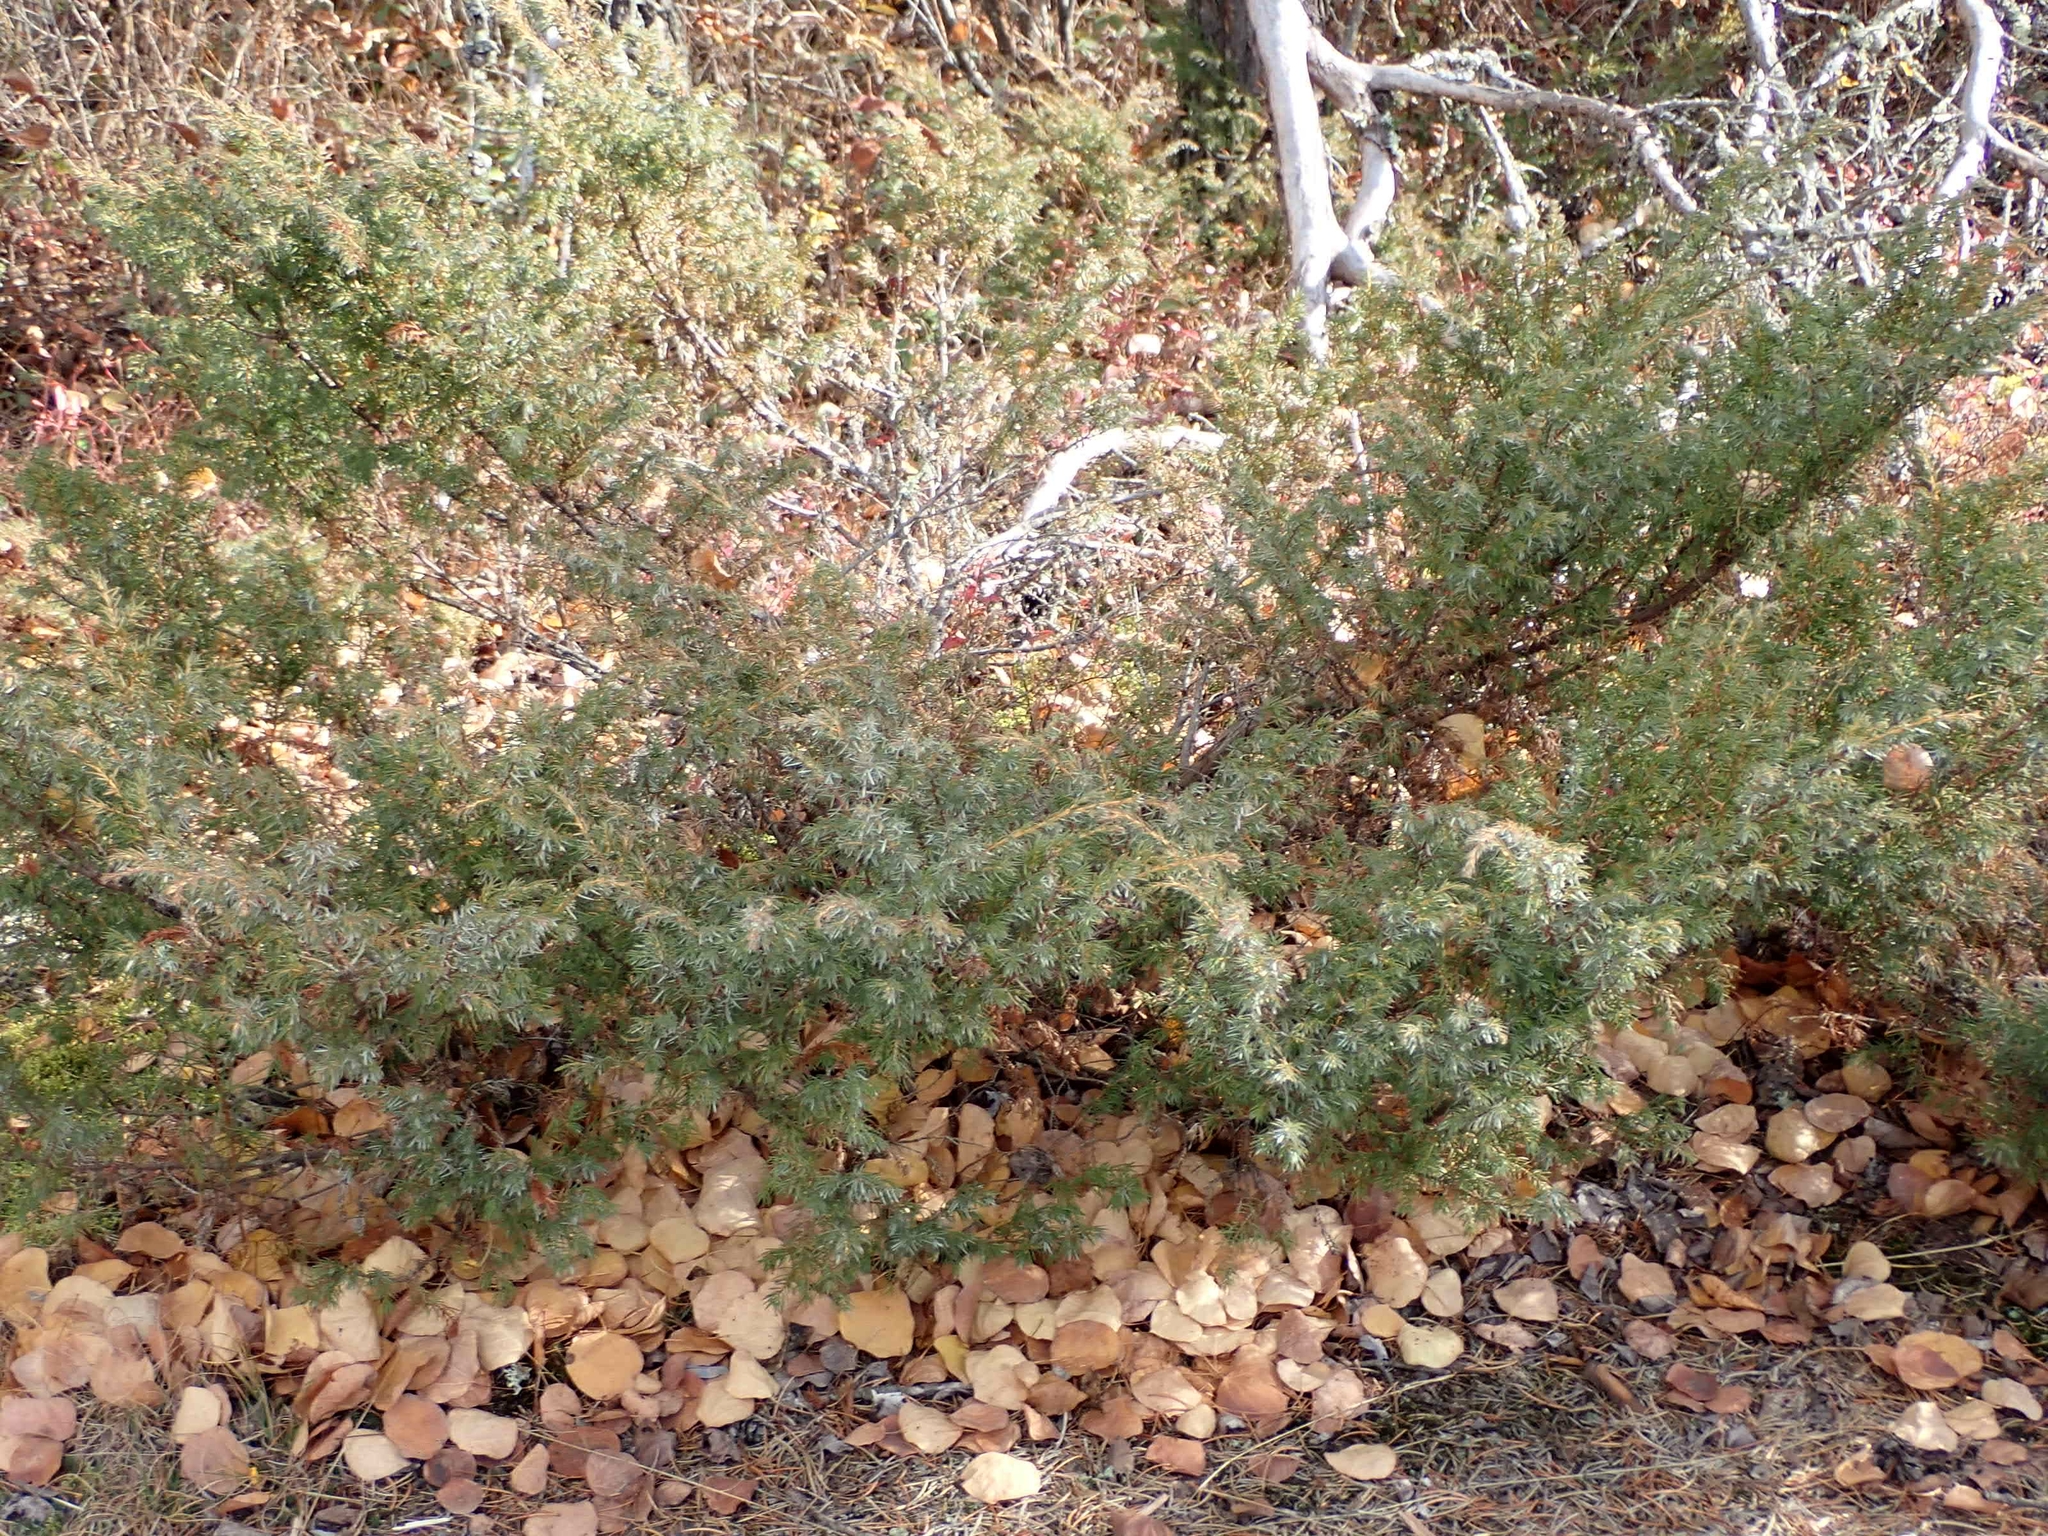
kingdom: Plantae
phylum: Tracheophyta
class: Pinopsida
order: Pinales
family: Cupressaceae
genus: Juniperus
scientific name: Juniperus communis
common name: Common juniper
